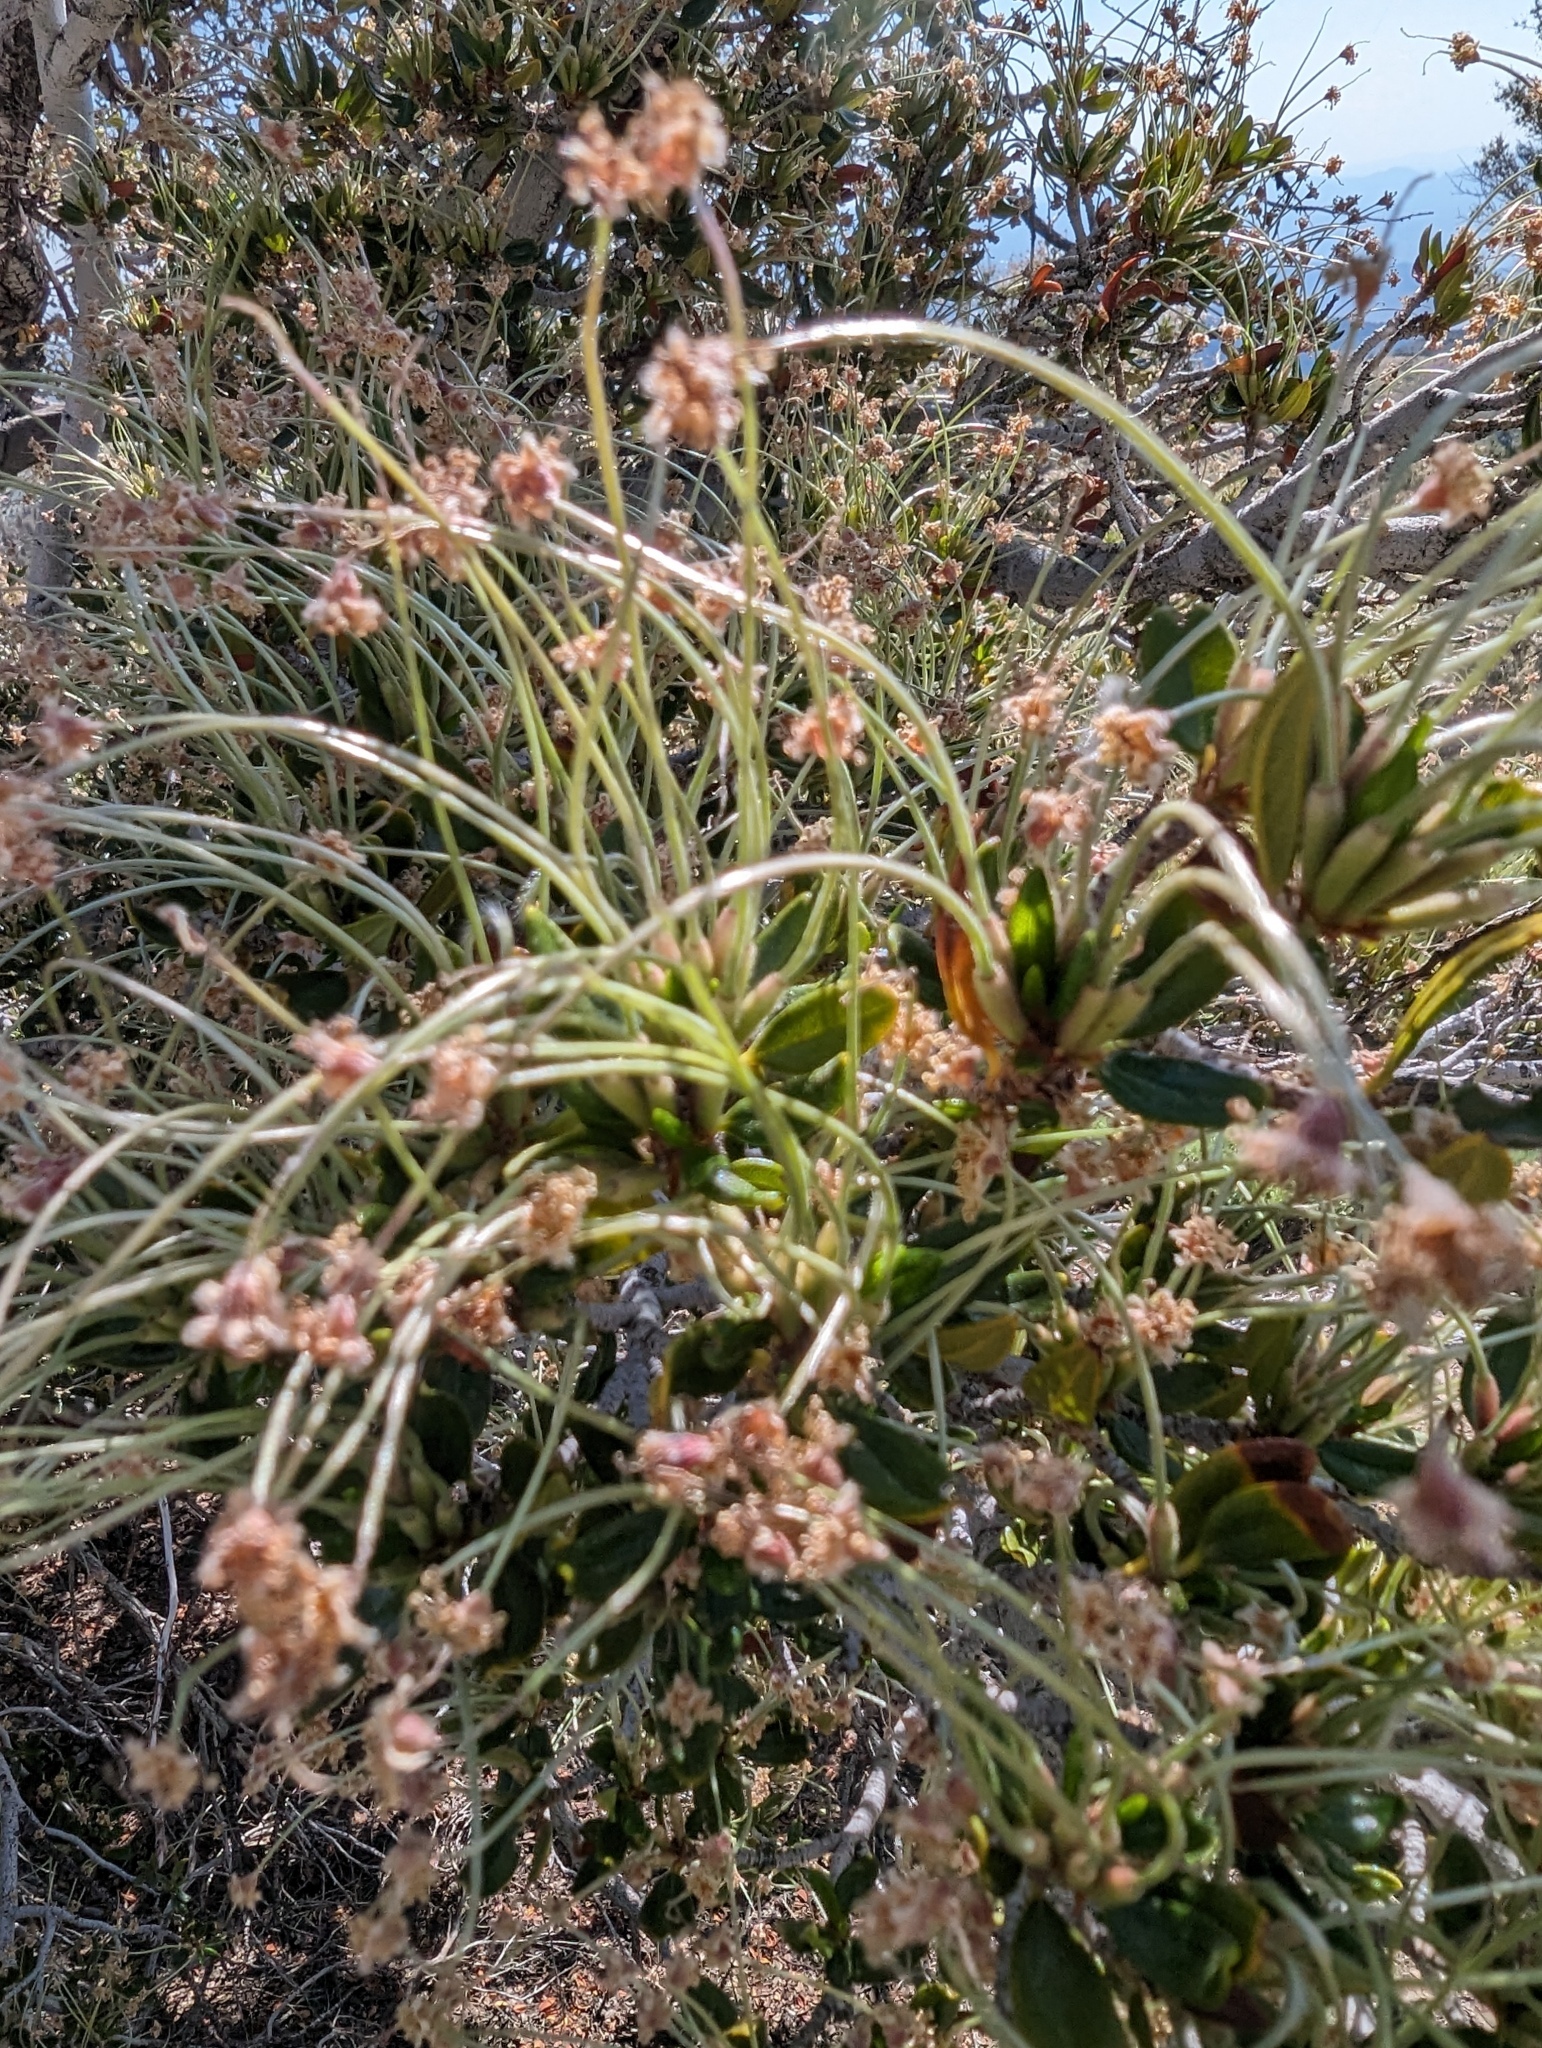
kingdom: Plantae
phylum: Tracheophyta
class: Magnoliopsida
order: Rosales
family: Rosaceae
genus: Cercocarpus
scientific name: Cercocarpus ledifolius
